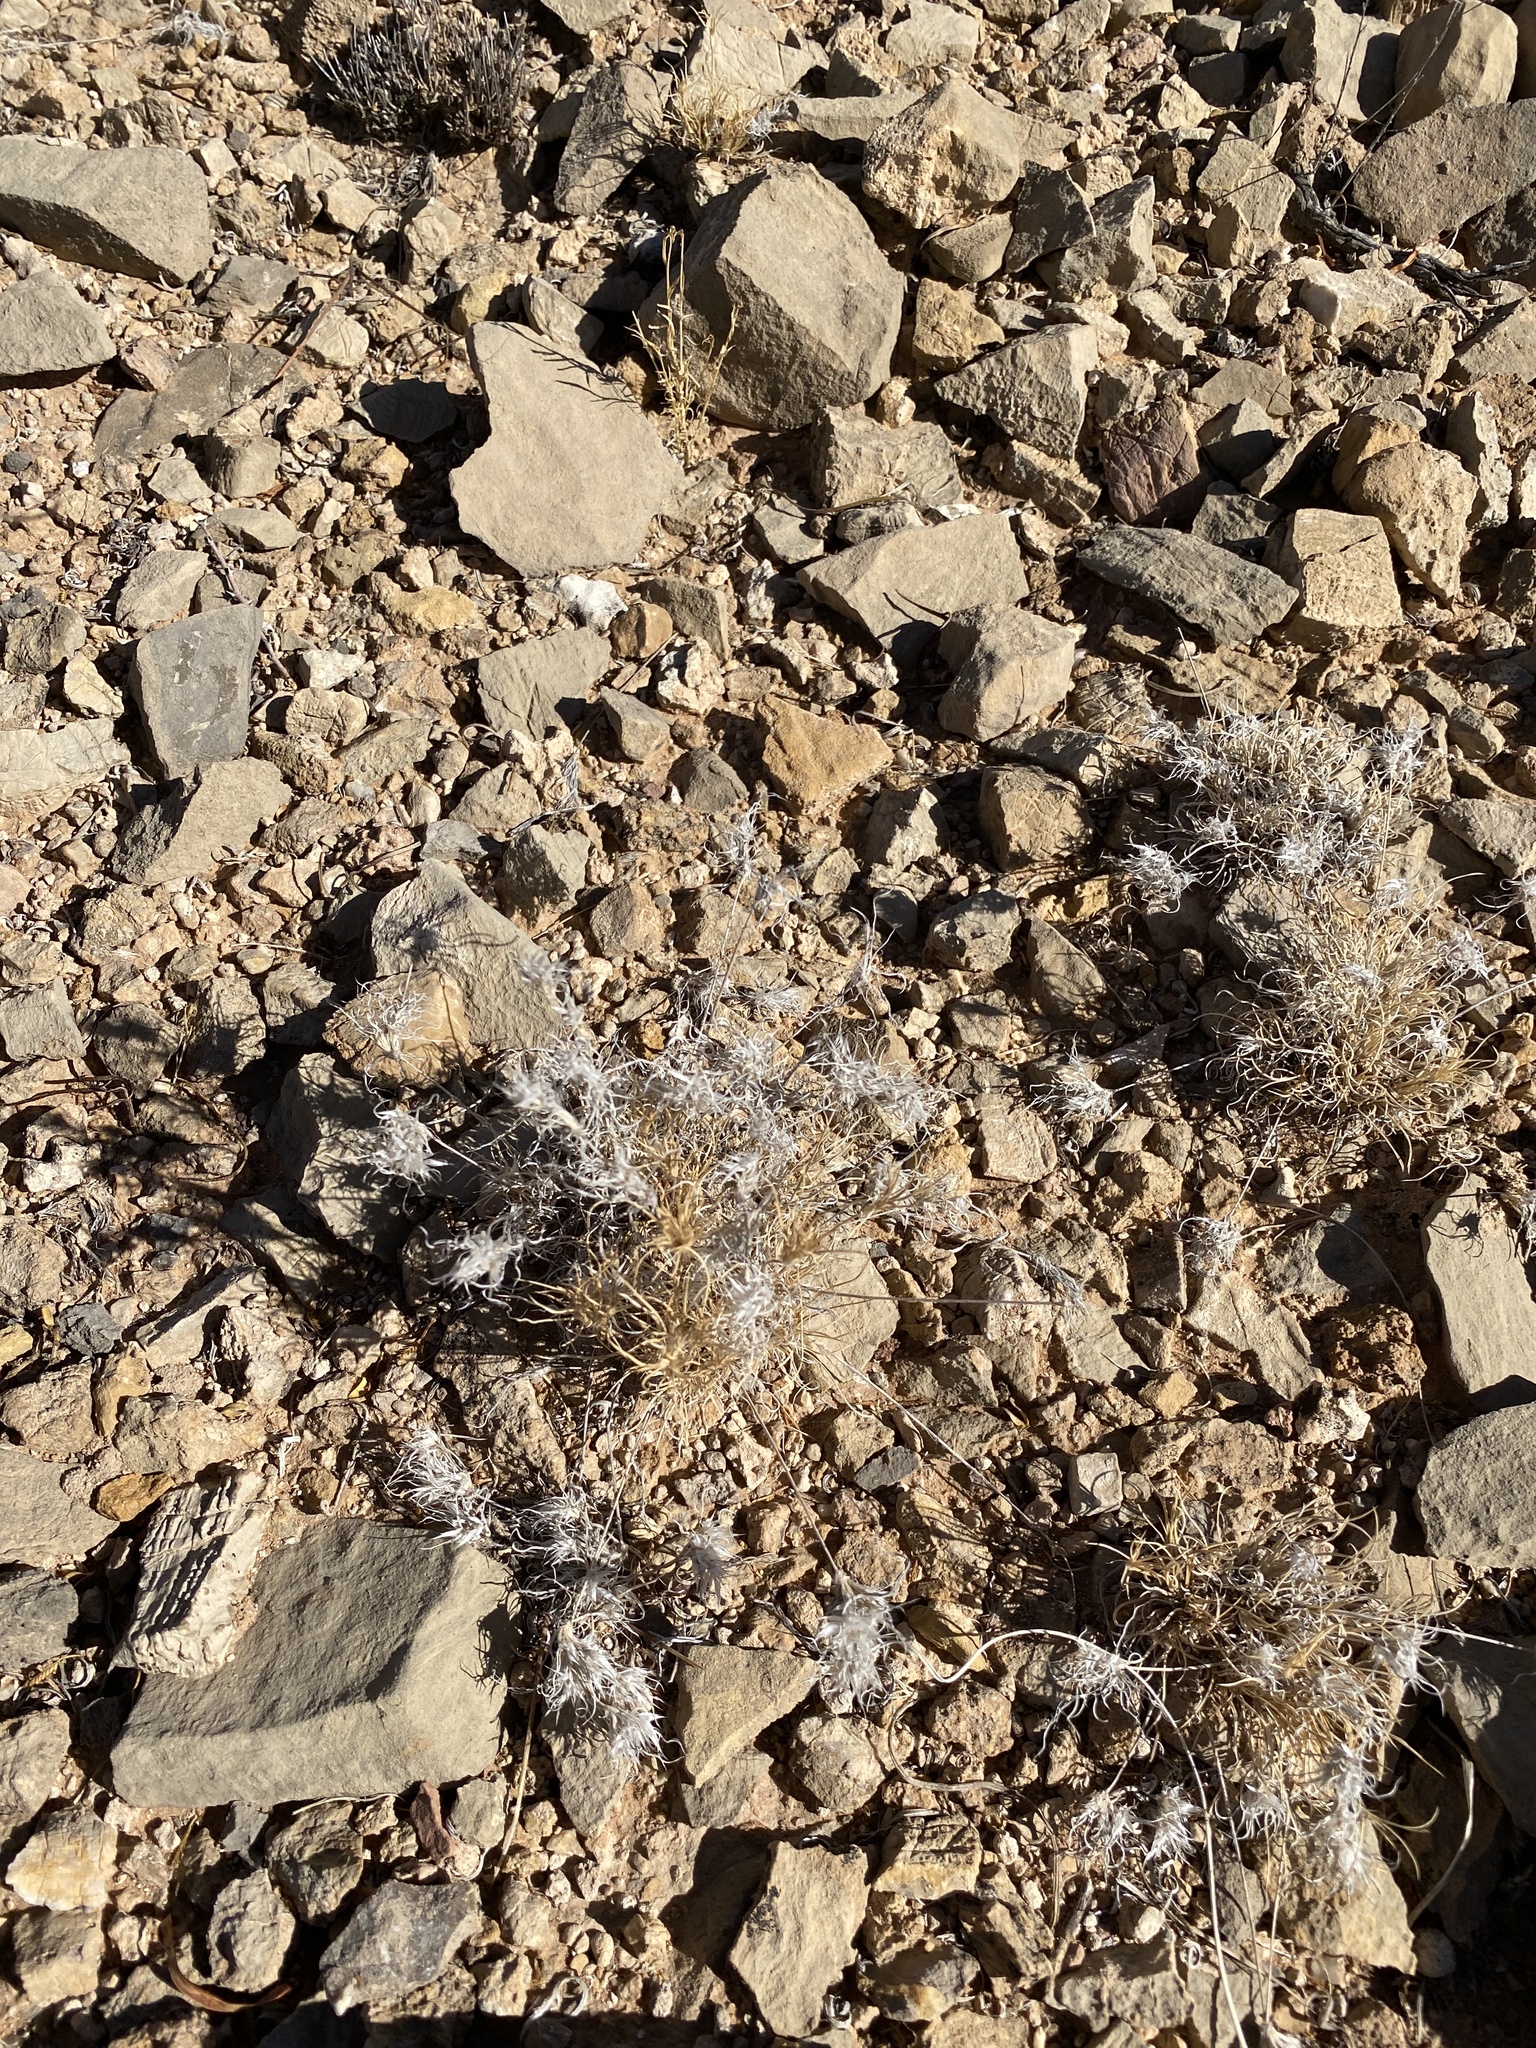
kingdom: Plantae
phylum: Tracheophyta
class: Liliopsida
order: Poales
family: Poaceae
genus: Dasyochloa
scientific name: Dasyochloa pulchella
